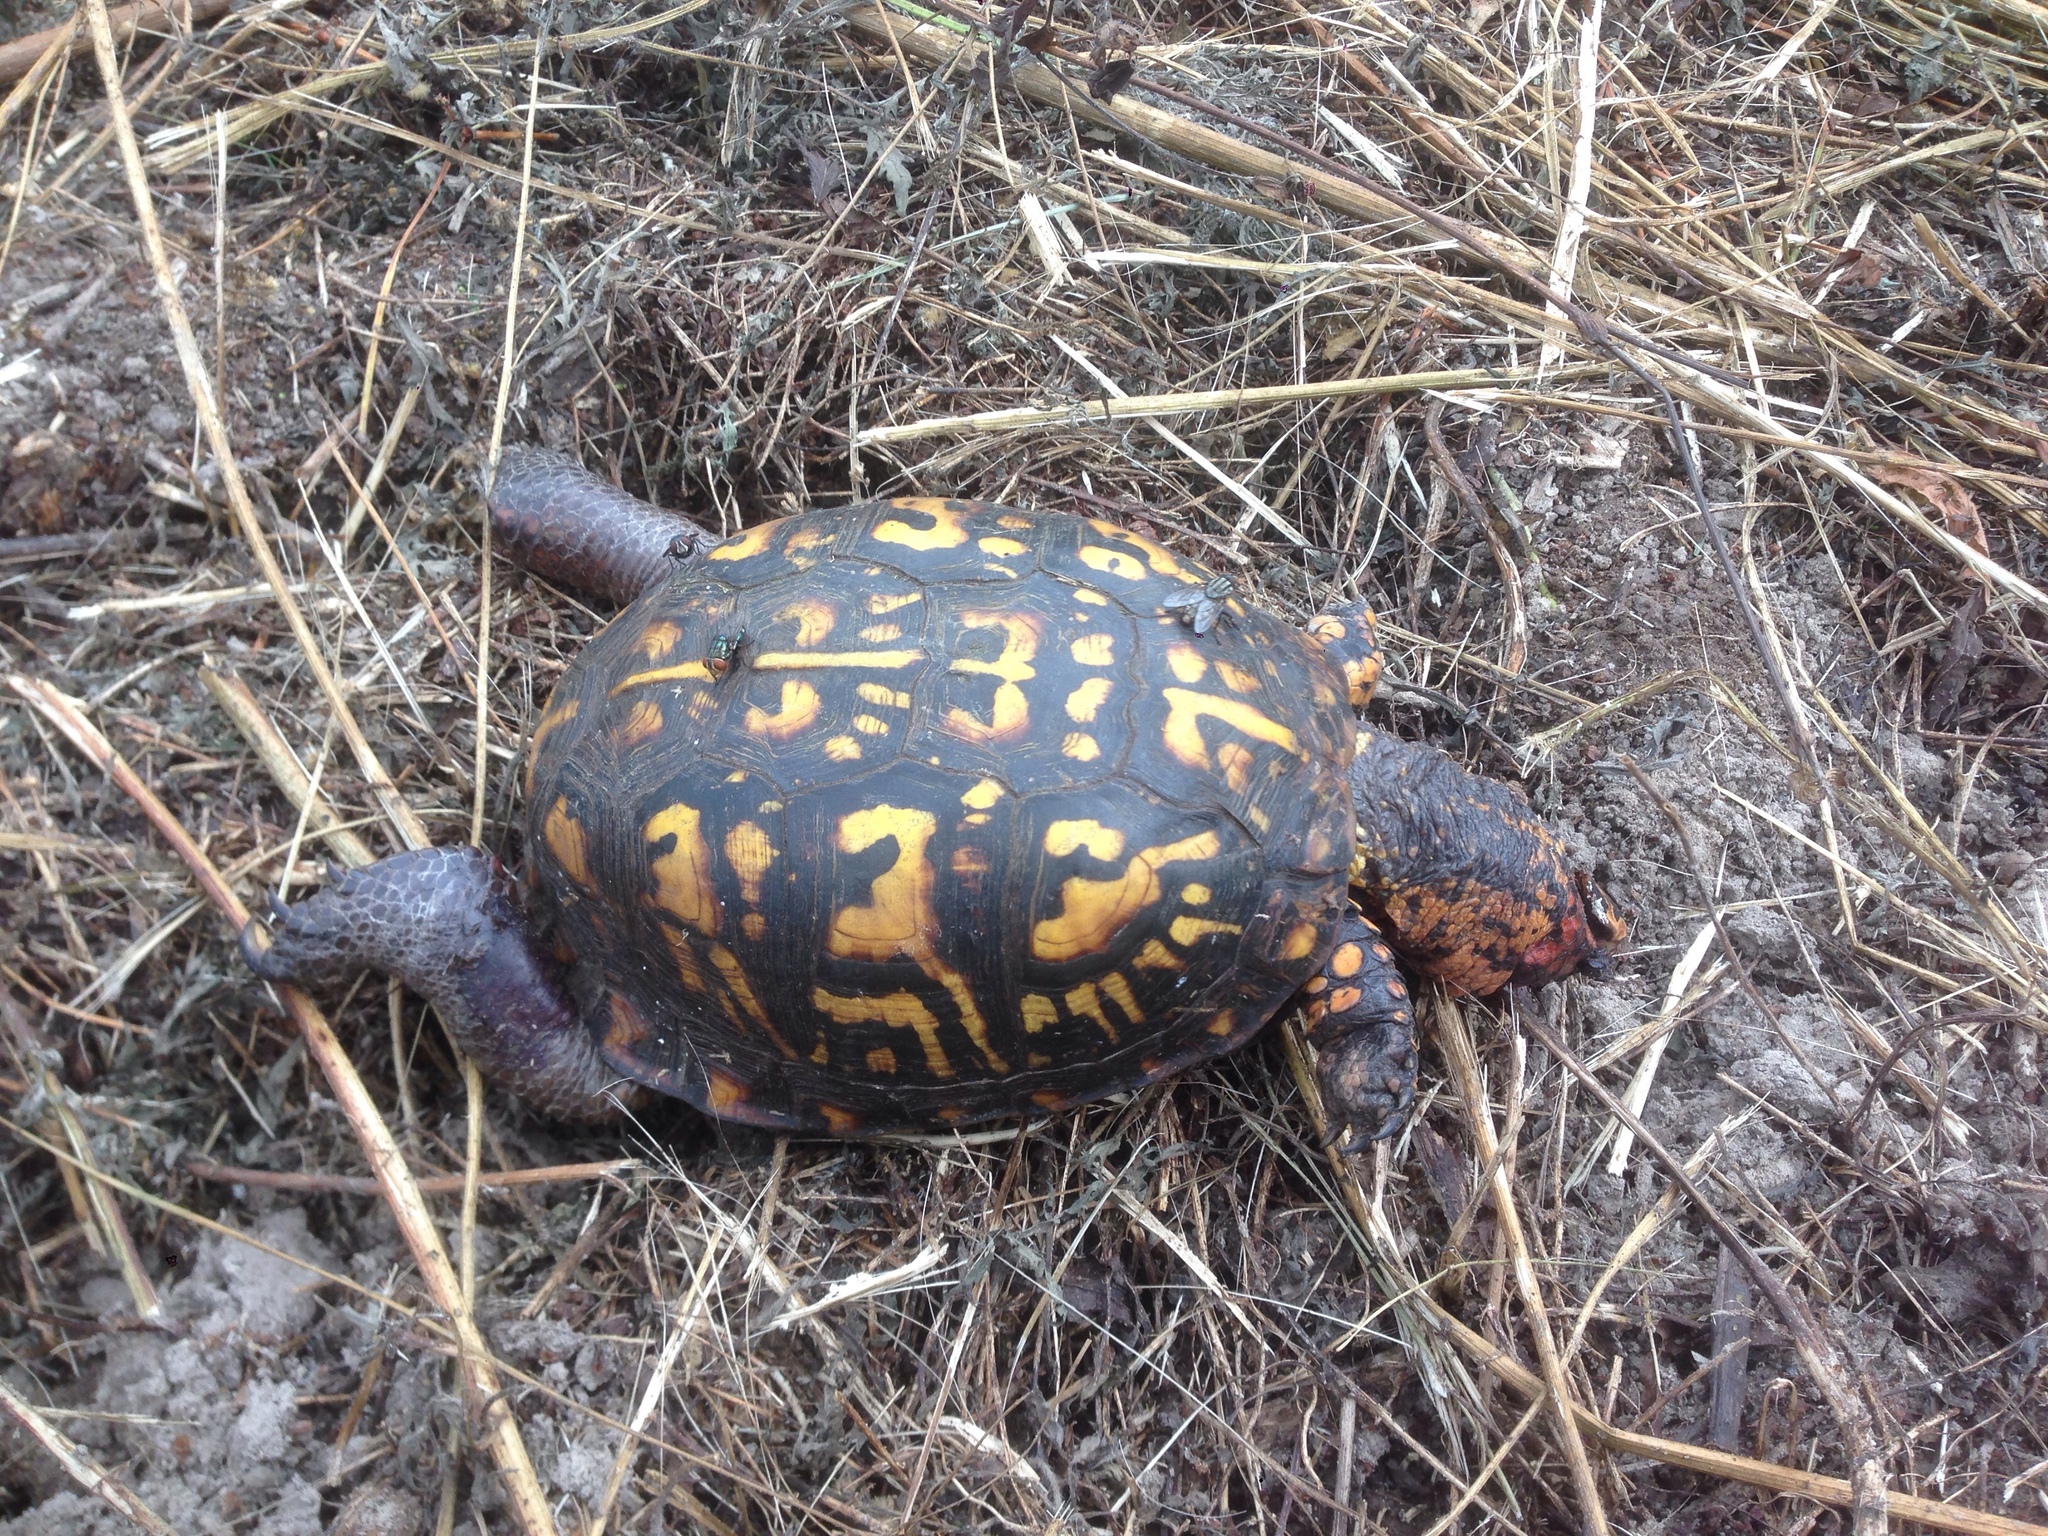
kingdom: Animalia
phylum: Chordata
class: Testudines
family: Emydidae
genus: Terrapene
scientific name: Terrapene carolina
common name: Common box turtle
